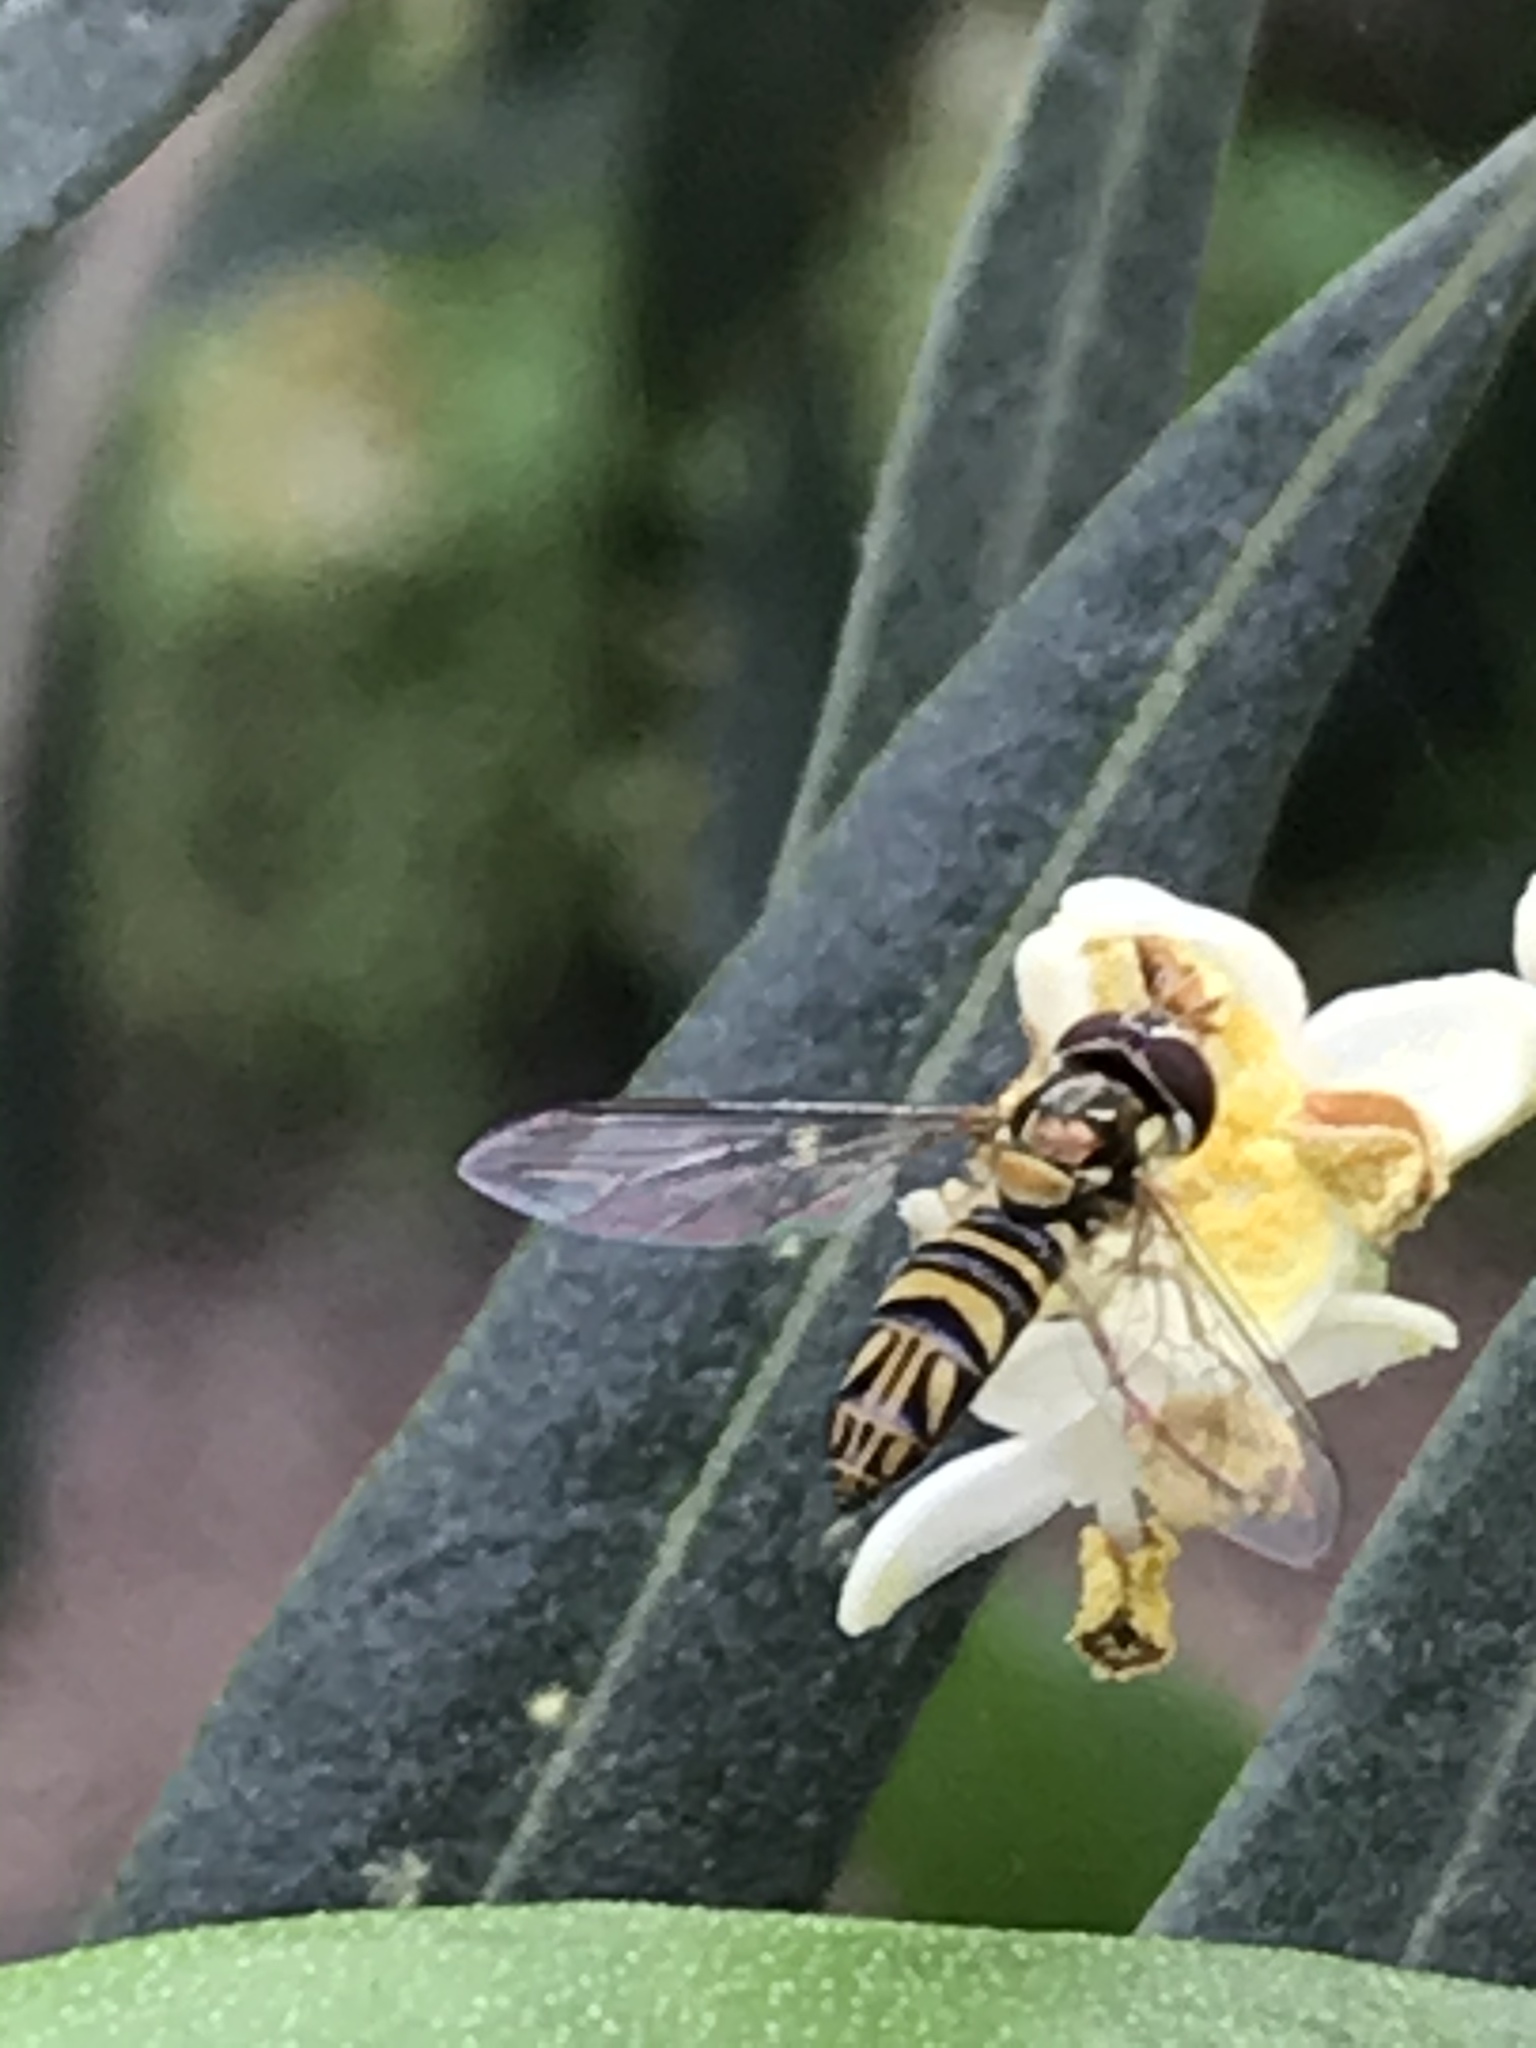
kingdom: Animalia
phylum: Arthropoda
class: Insecta
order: Diptera
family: Syrphidae
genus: Allograpta
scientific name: Allograpta obliqua
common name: Common oblique syrphid
